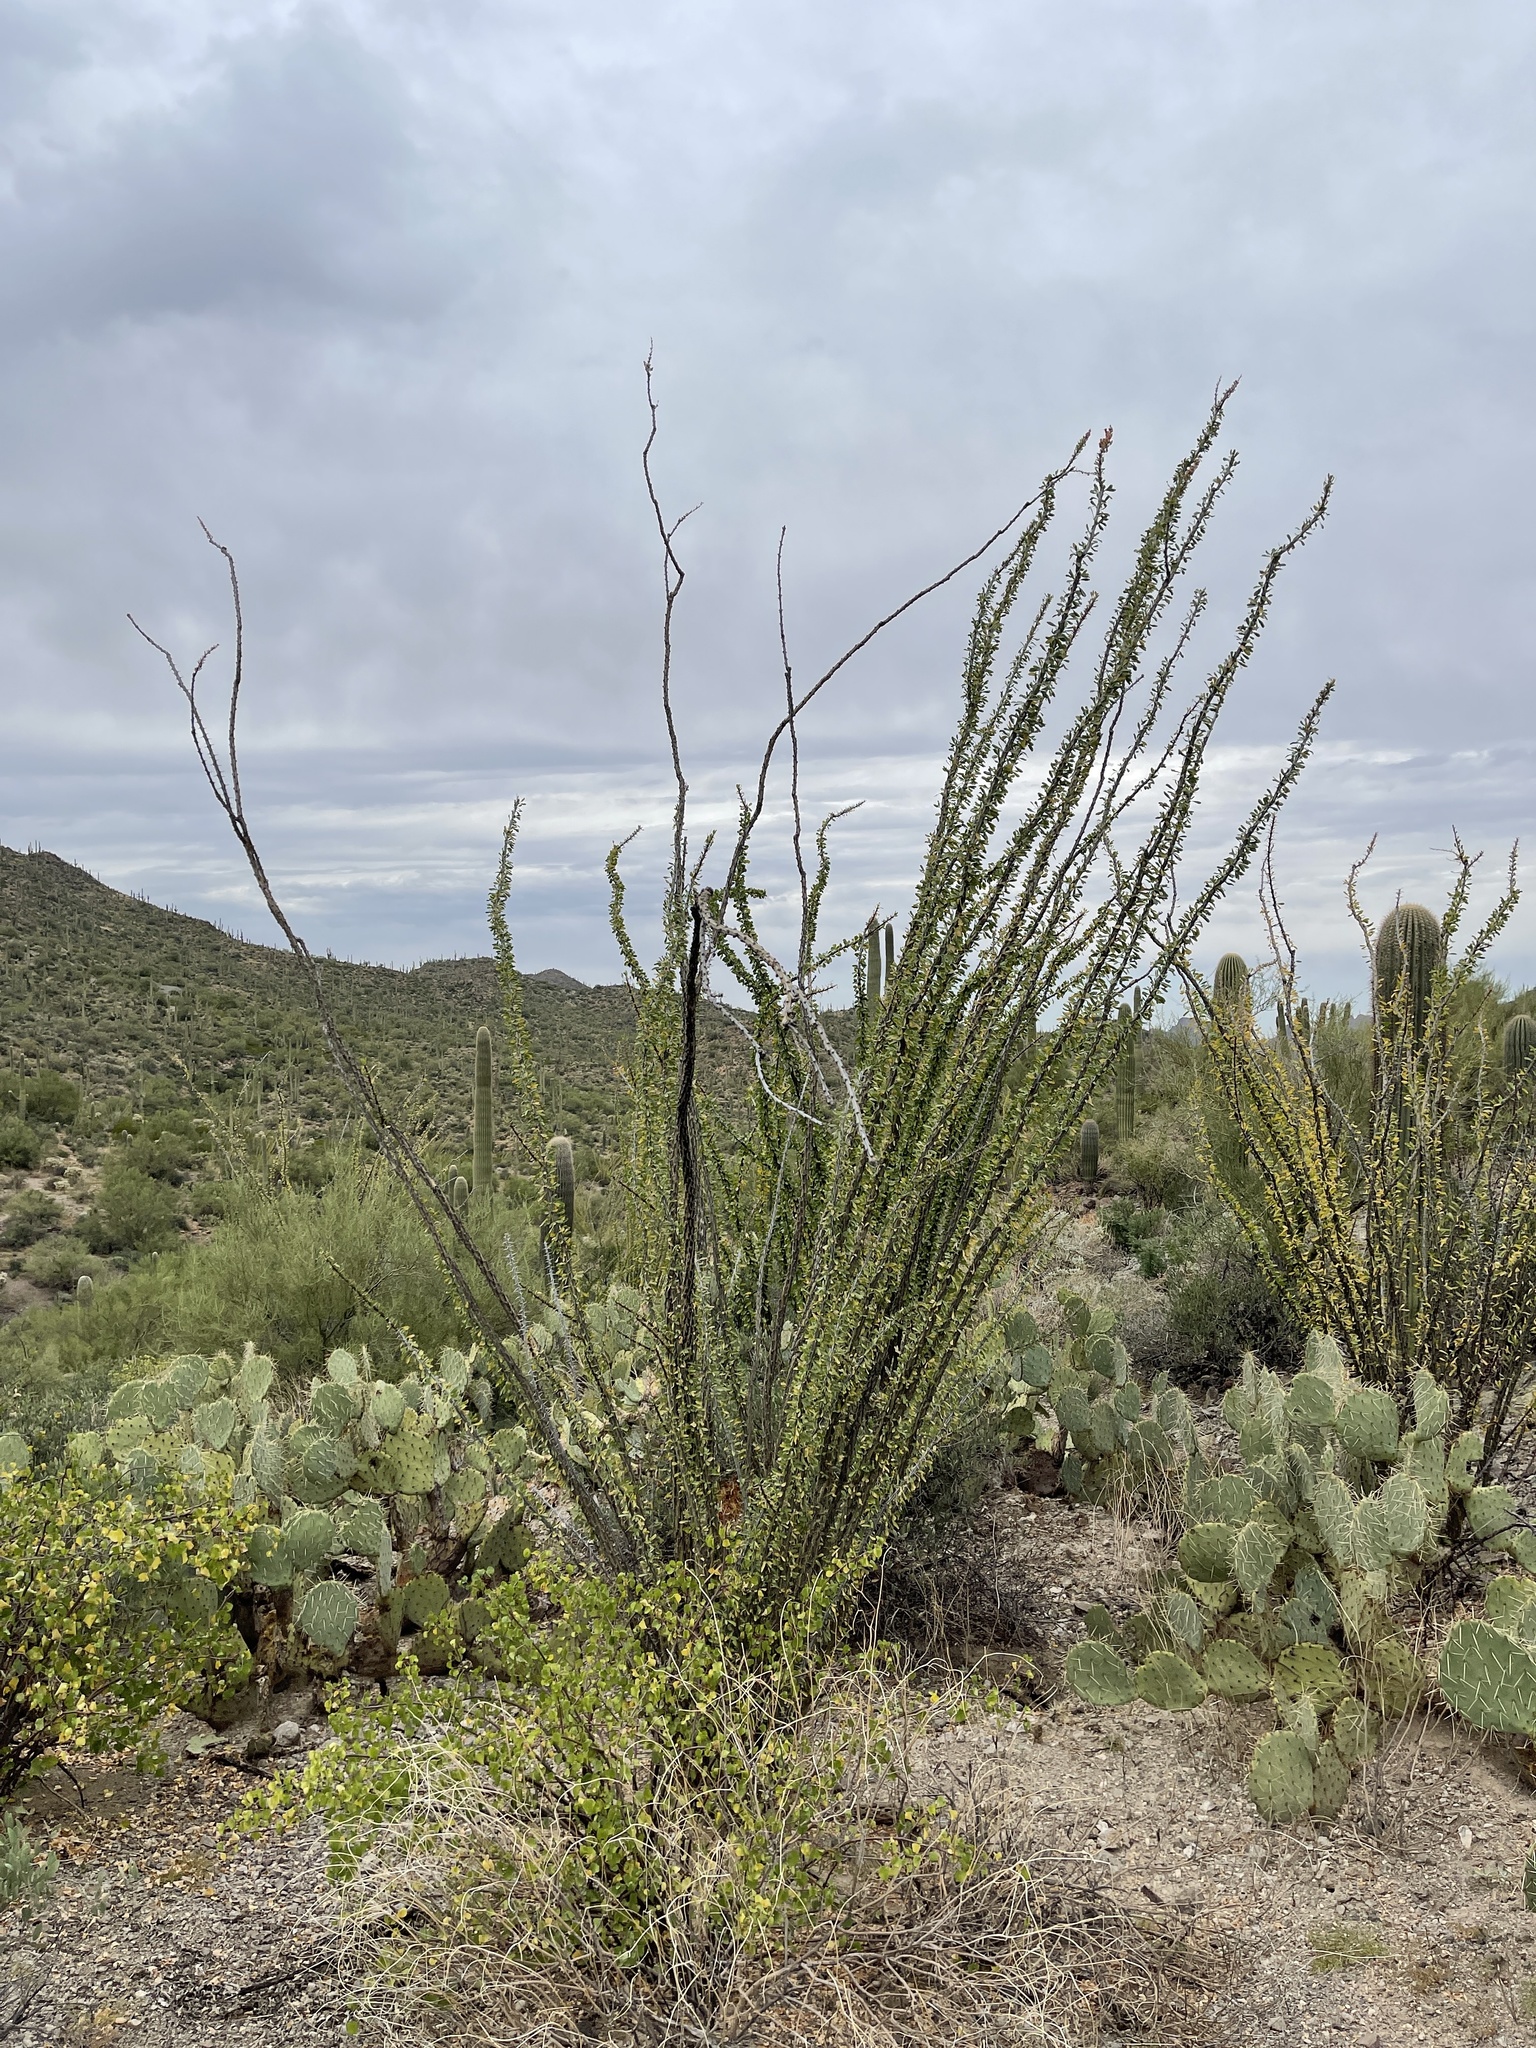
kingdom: Plantae
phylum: Tracheophyta
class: Magnoliopsida
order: Ericales
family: Fouquieriaceae
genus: Fouquieria
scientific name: Fouquieria splendens
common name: Vine-cactus
